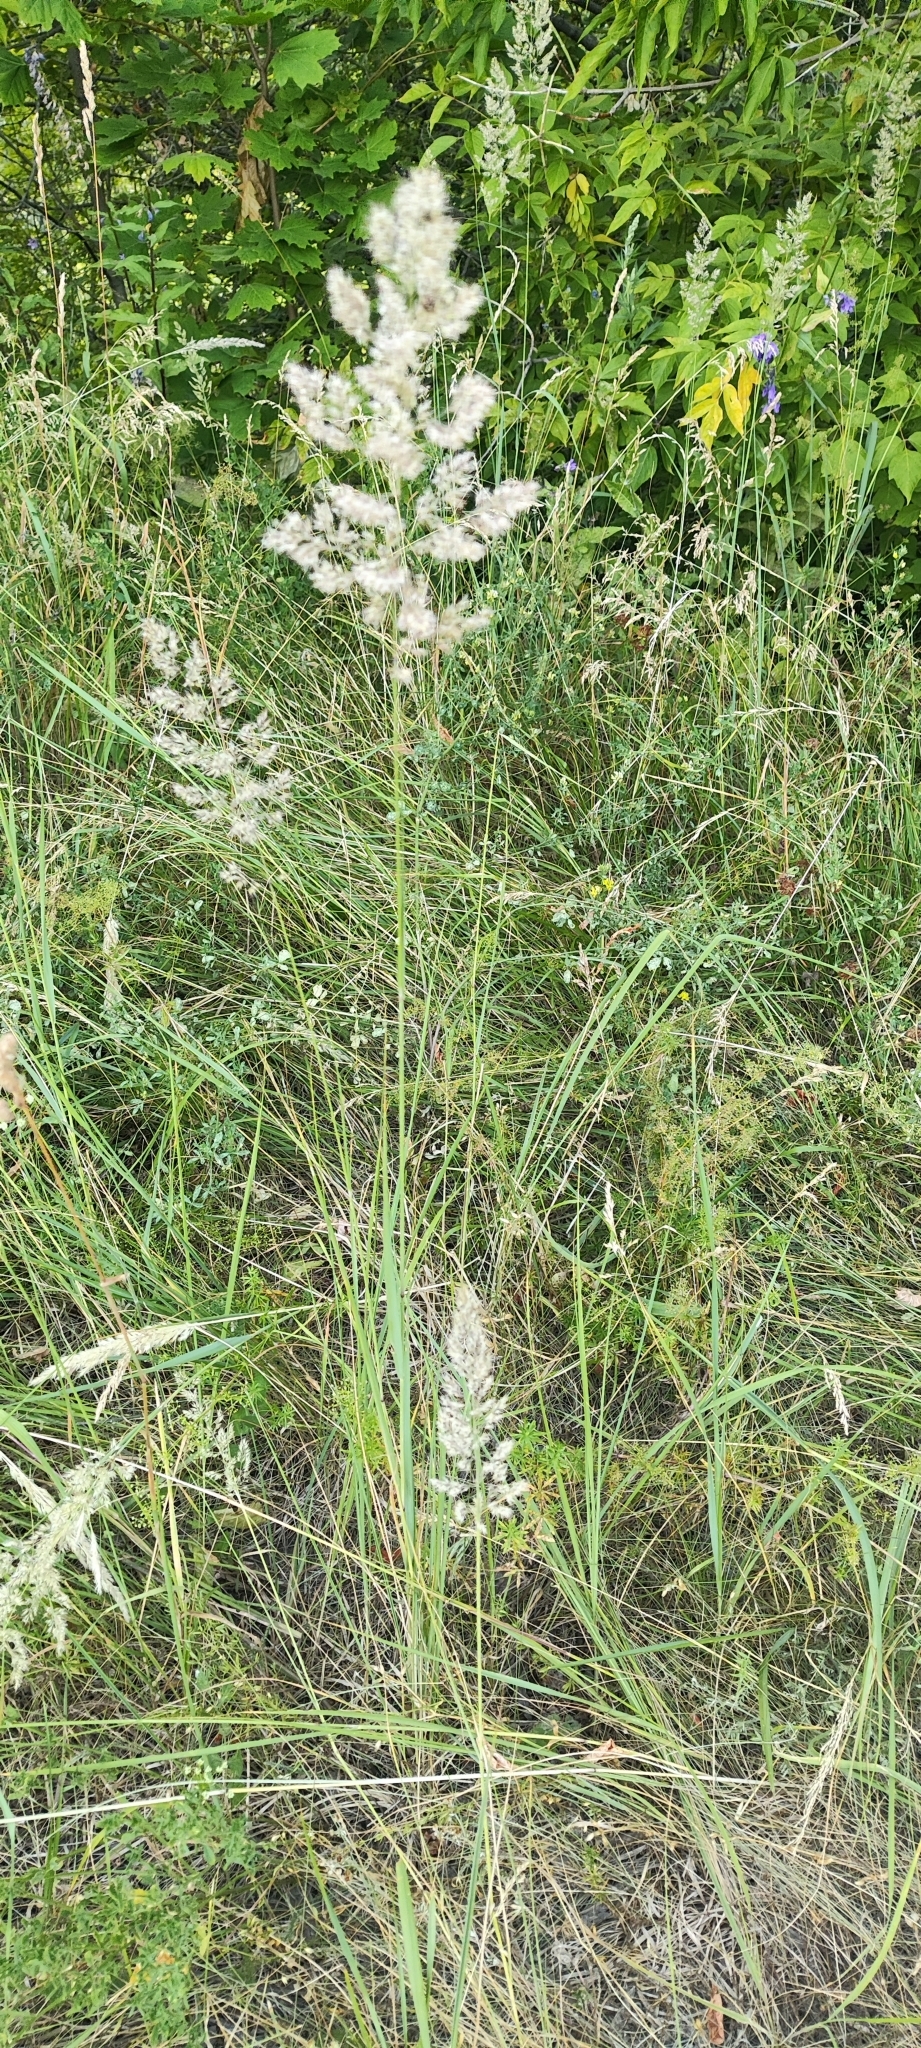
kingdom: Plantae
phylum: Tracheophyta
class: Liliopsida
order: Poales
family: Poaceae
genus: Calamagrostis
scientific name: Calamagrostis epigejos
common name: Wood small-reed
